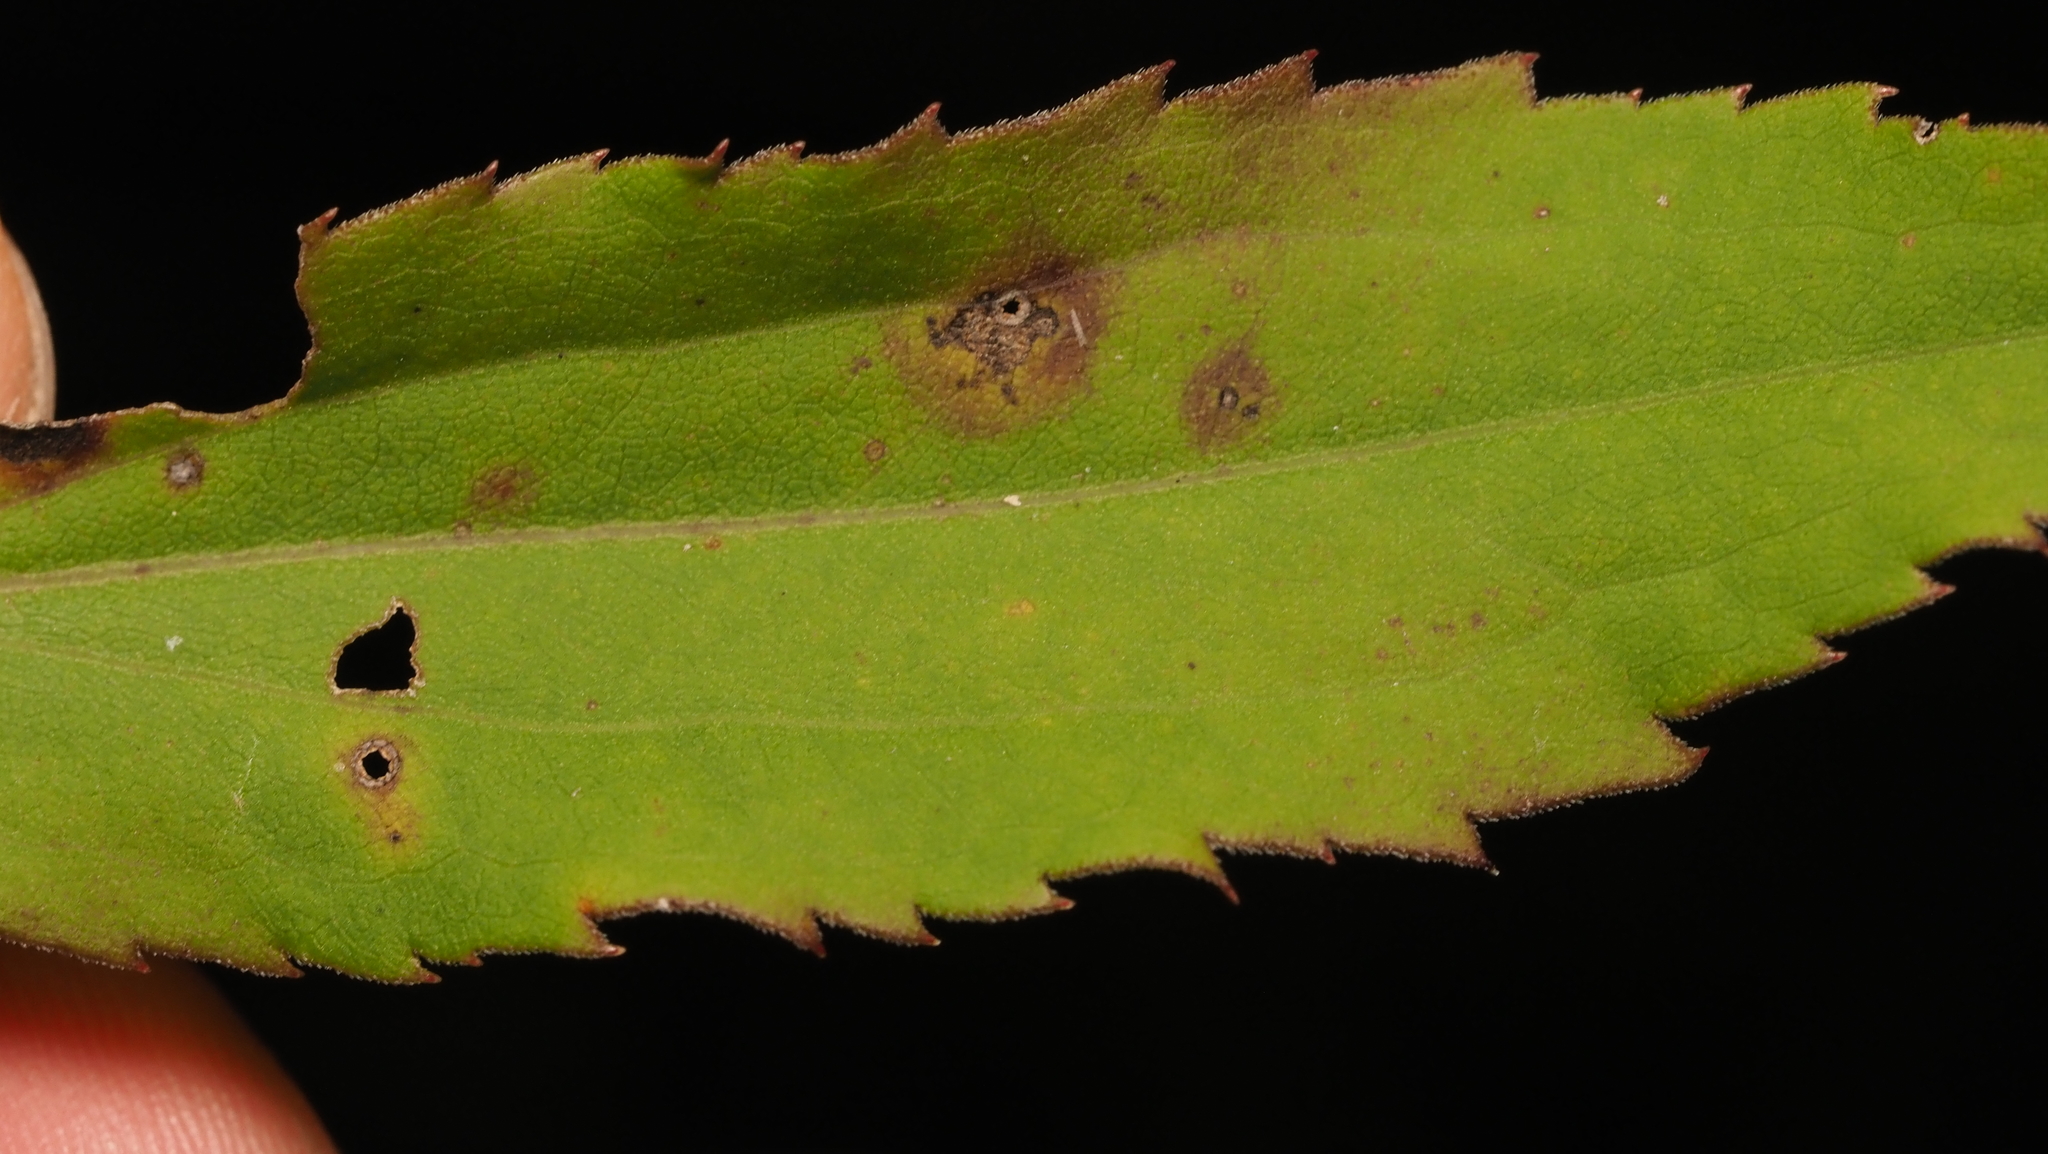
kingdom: Plantae
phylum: Tracheophyta
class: Magnoliopsida
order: Asterales
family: Asteraceae
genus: Solidago
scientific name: Solidago gigantea
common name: Giant goldenrod
